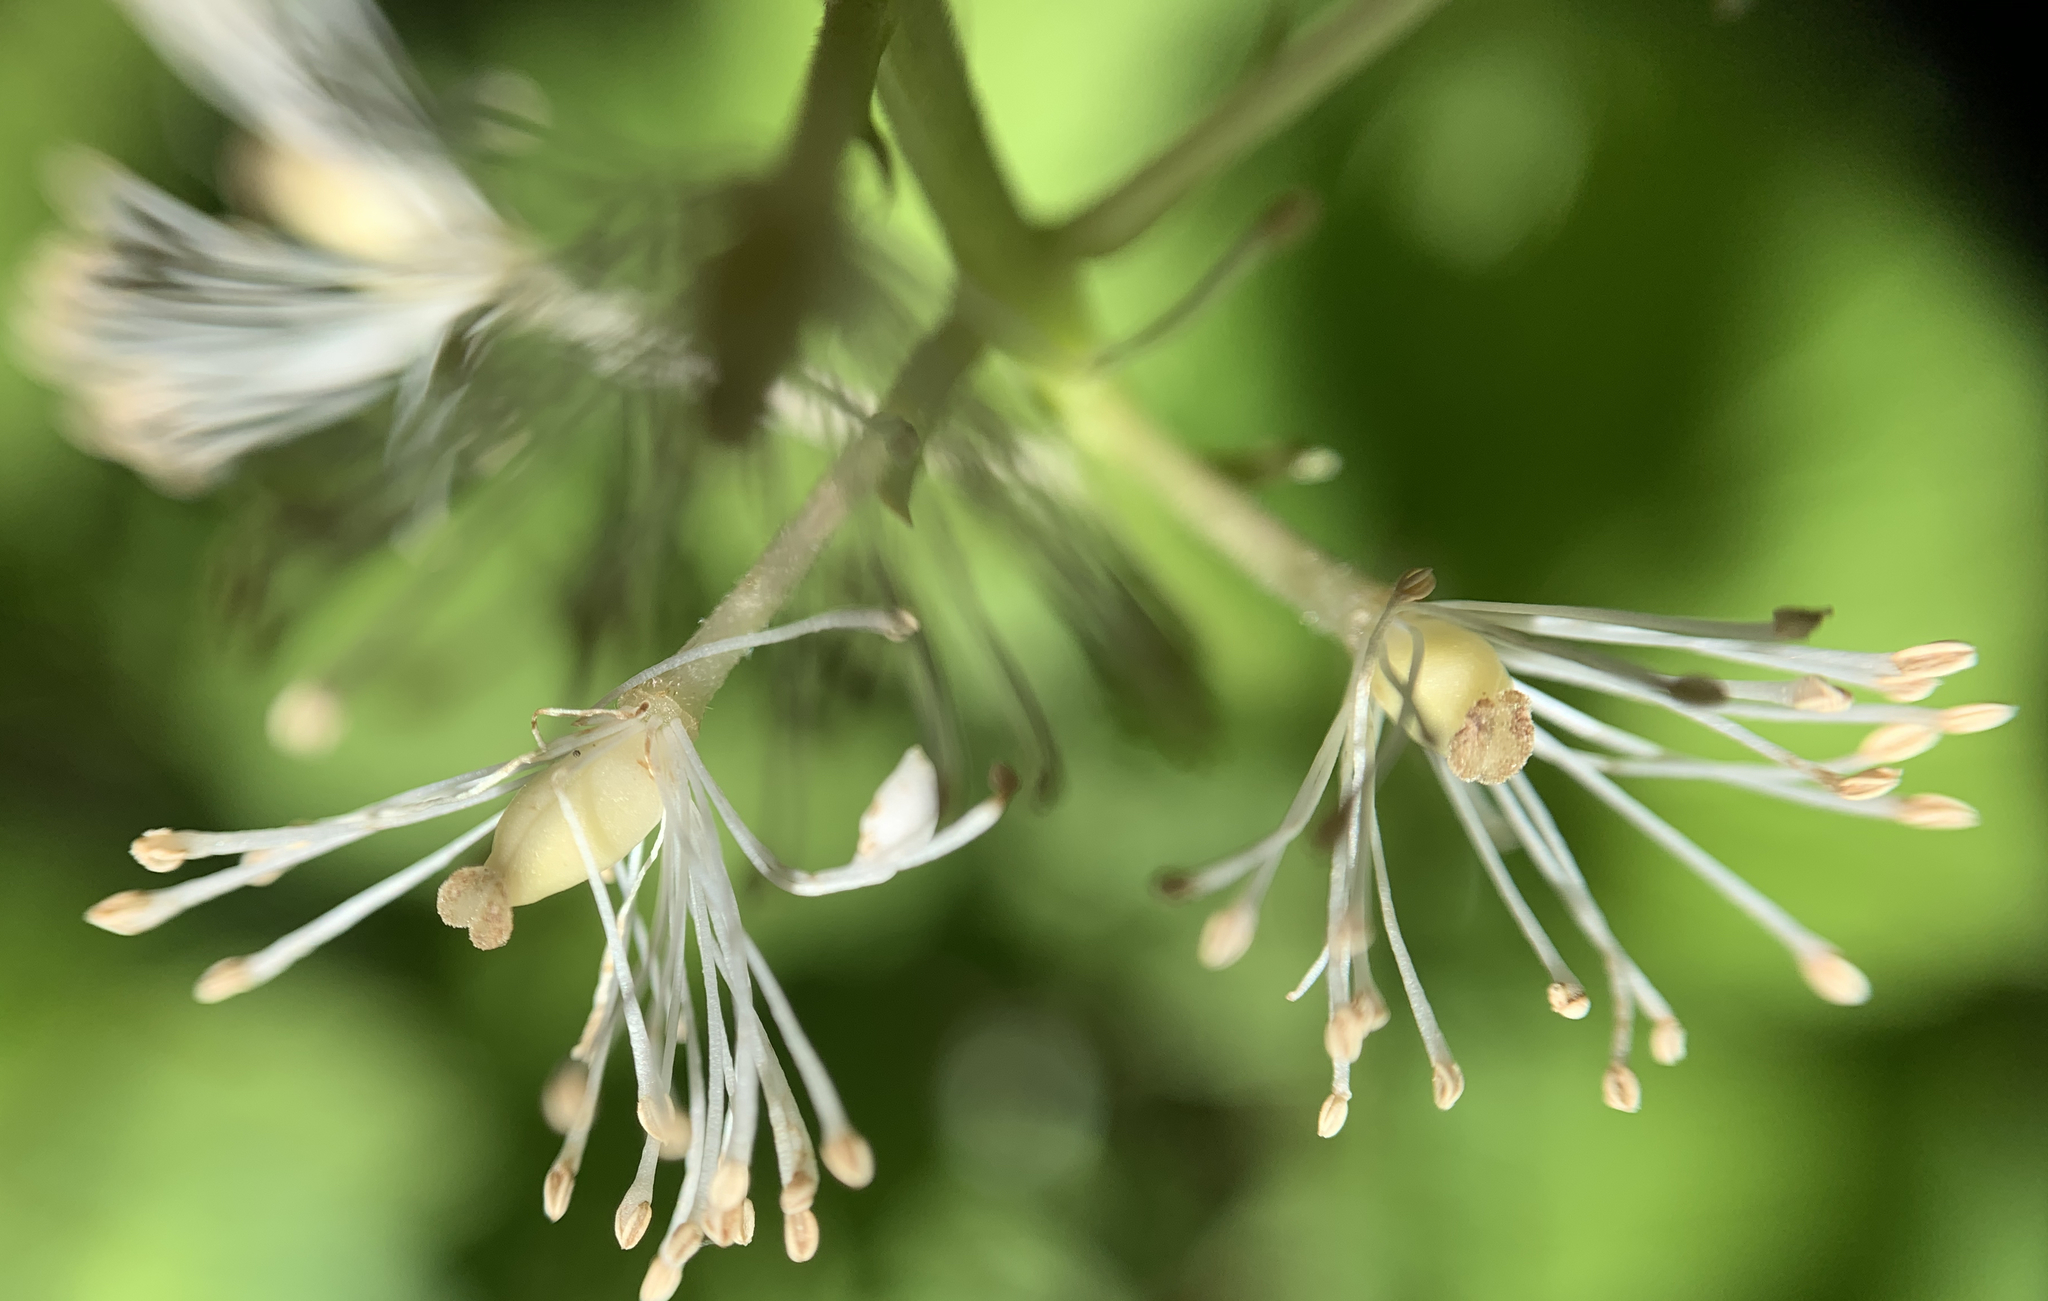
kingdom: Plantae
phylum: Tracheophyta
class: Magnoliopsida
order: Ranunculales
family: Ranunculaceae
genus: Actaea
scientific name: Actaea rubra
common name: Red baneberry
